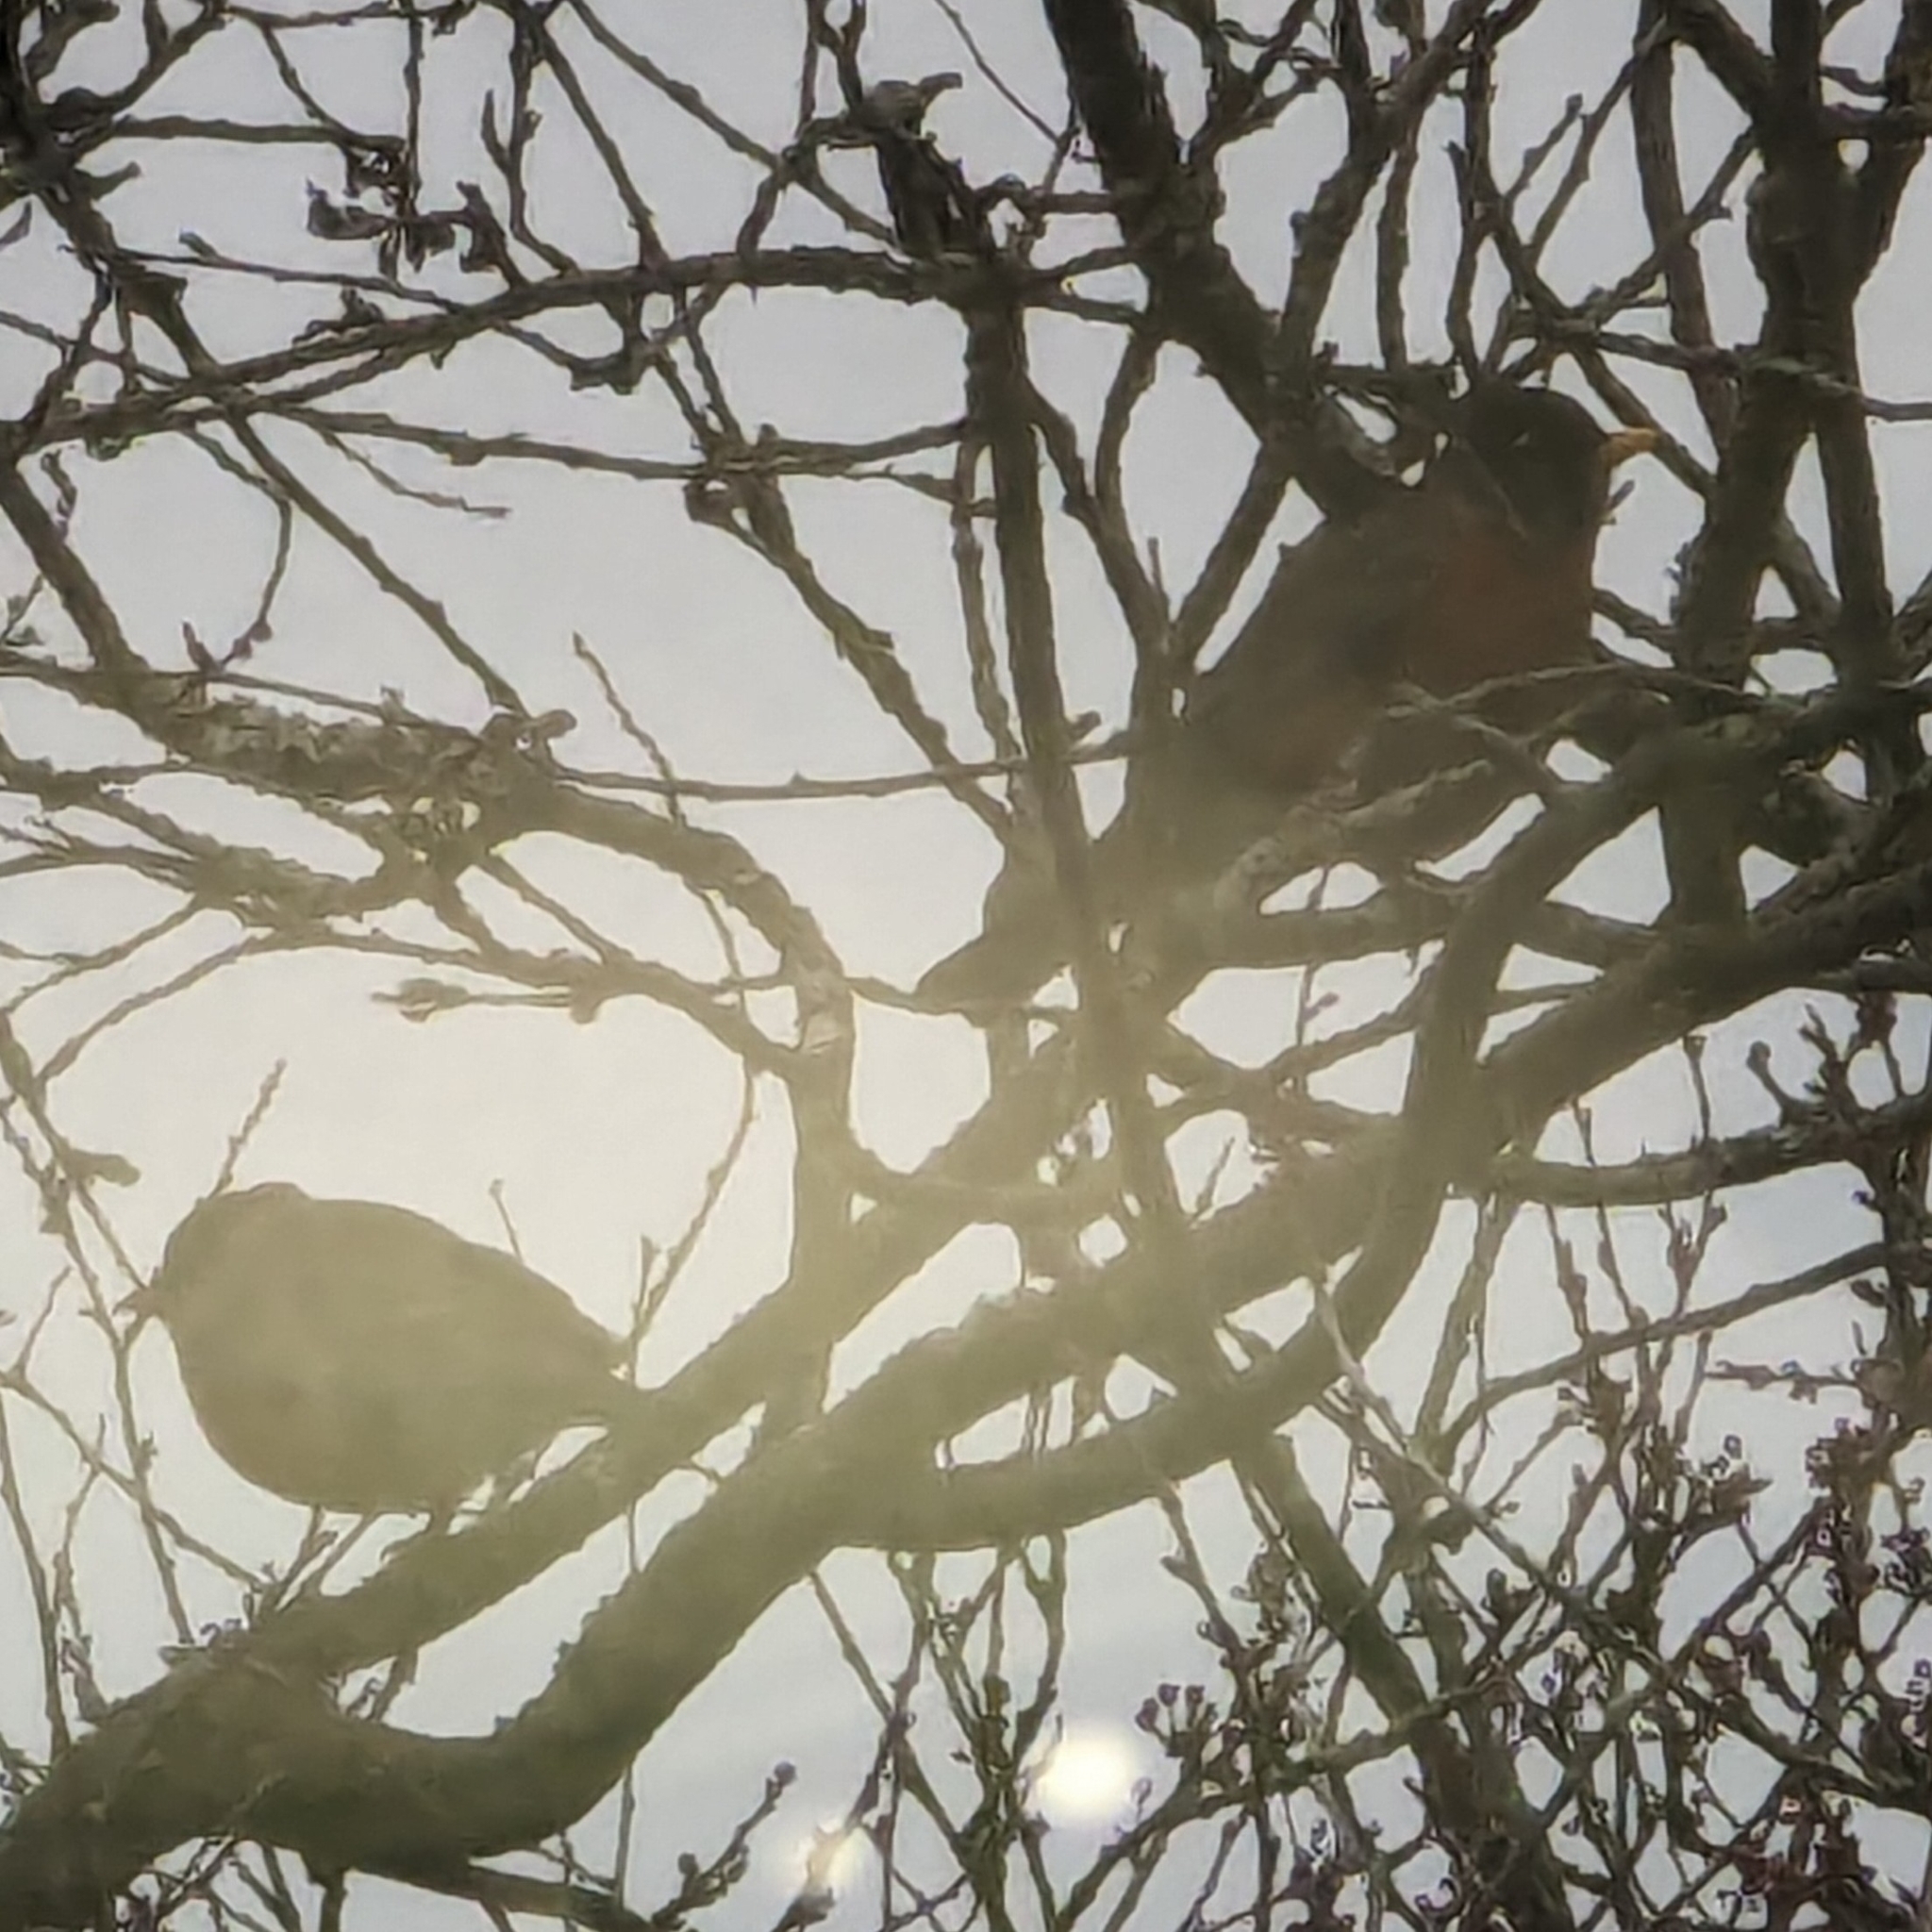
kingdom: Animalia
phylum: Chordata
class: Aves
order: Passeriformes
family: Turdidae
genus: Turdus
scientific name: Turdus migratorius
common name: American robin
